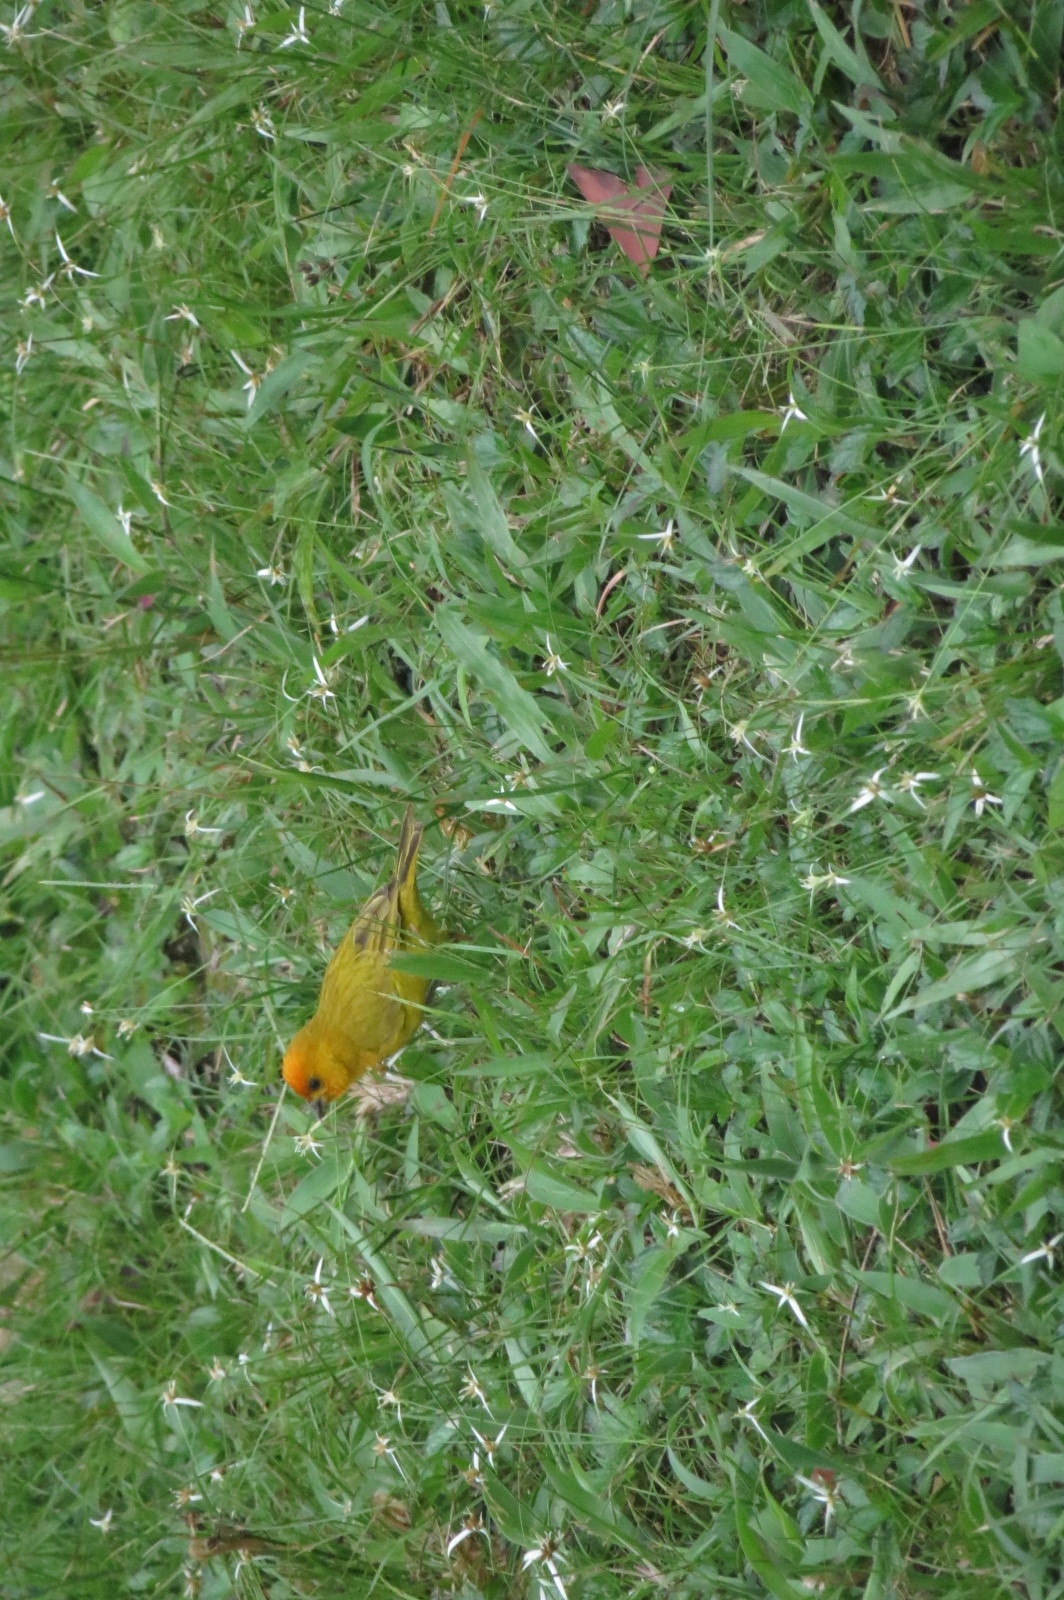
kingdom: Animalia
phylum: Chordata
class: Aves
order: Passeriformes
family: Thraupidae
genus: Sicalis
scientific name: Sicalis flaveola
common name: Saffron finch
